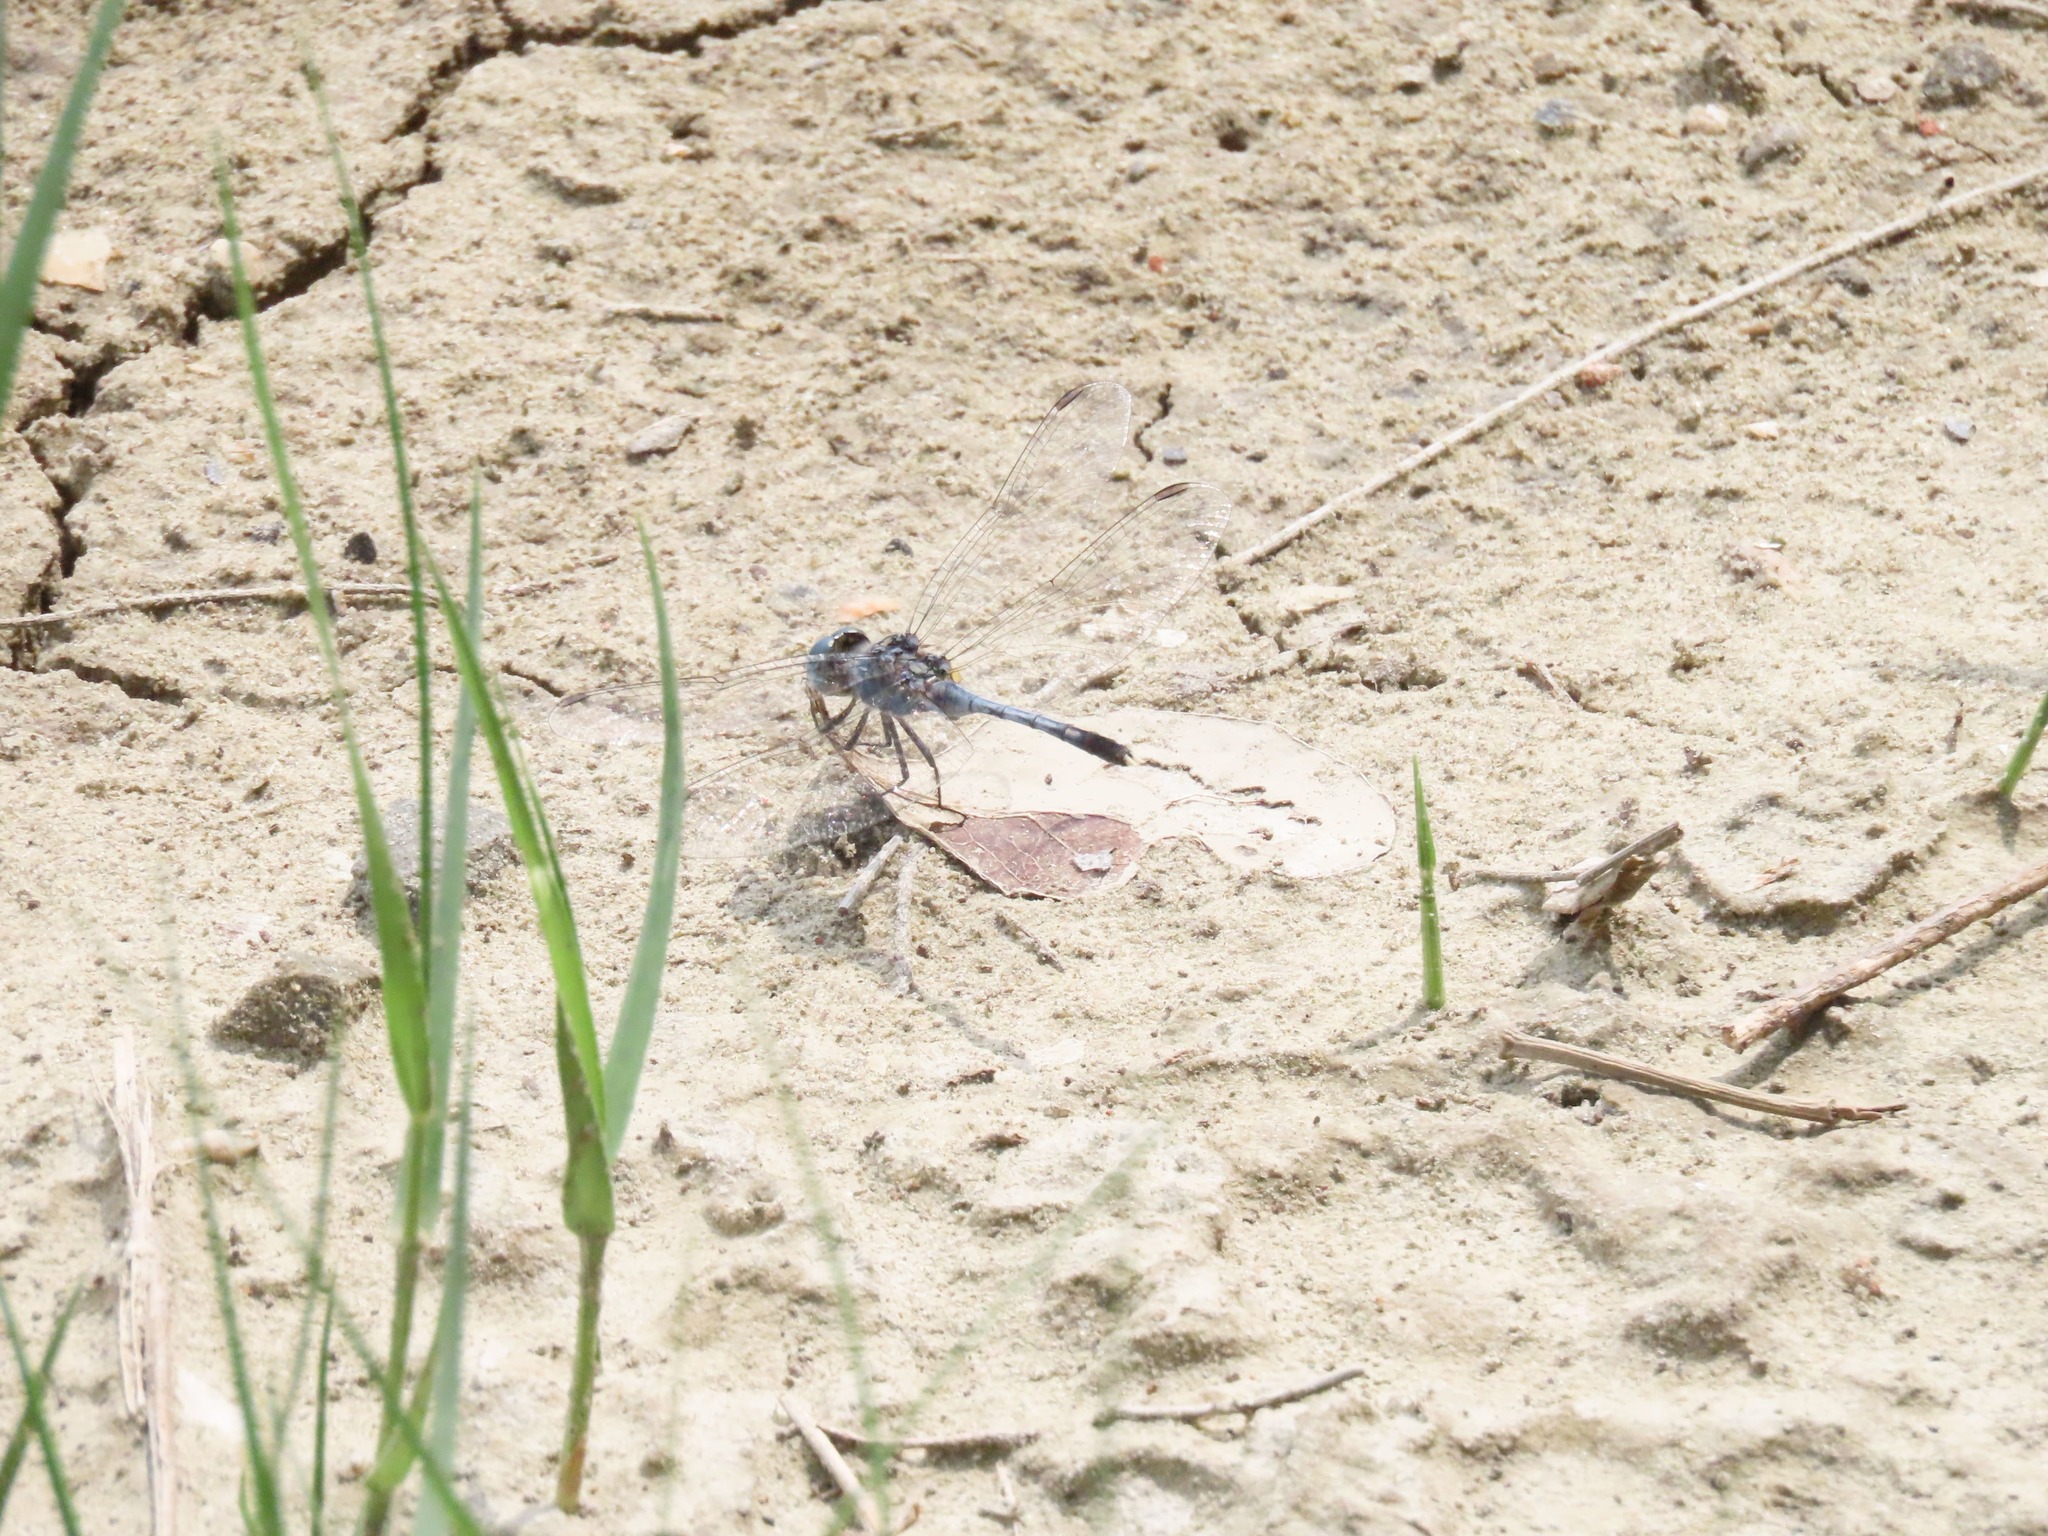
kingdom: Animalia
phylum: Arthropoda
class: Insecta
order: Odonata
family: Libellulidae
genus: Diplacodes
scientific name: Diplacodes trivialis
